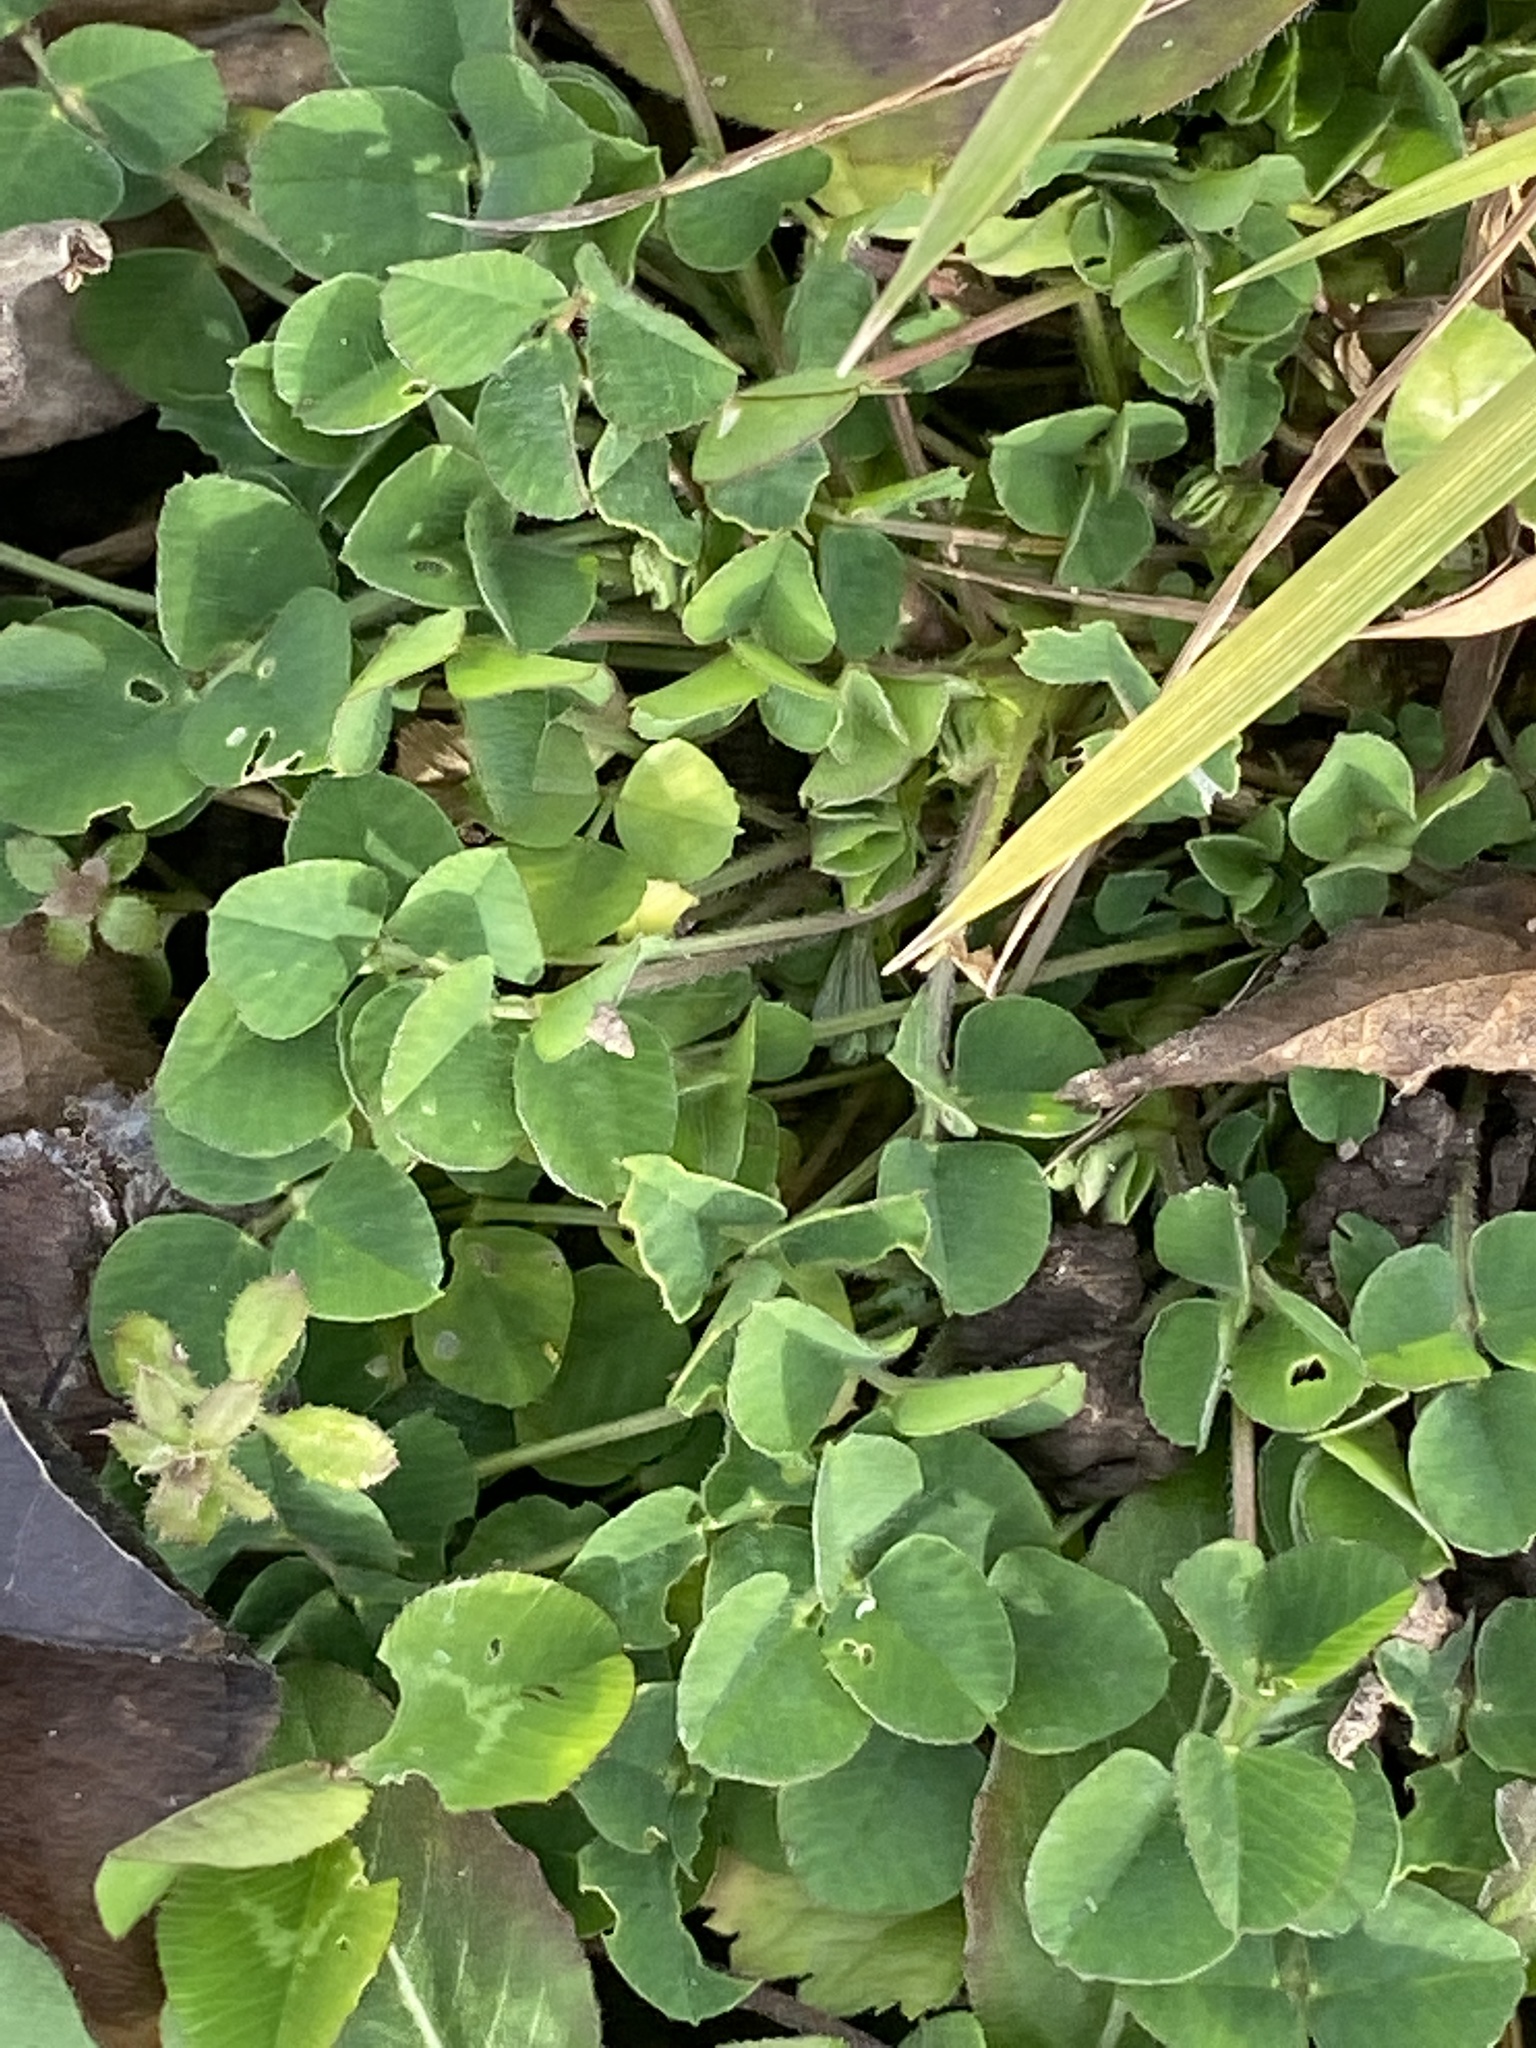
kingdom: Plantae
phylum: Tracheophyta
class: Magnoliopsida
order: Fabales
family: Fabaceae
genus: Medicago
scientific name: Medicago lupulina
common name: Black medick
